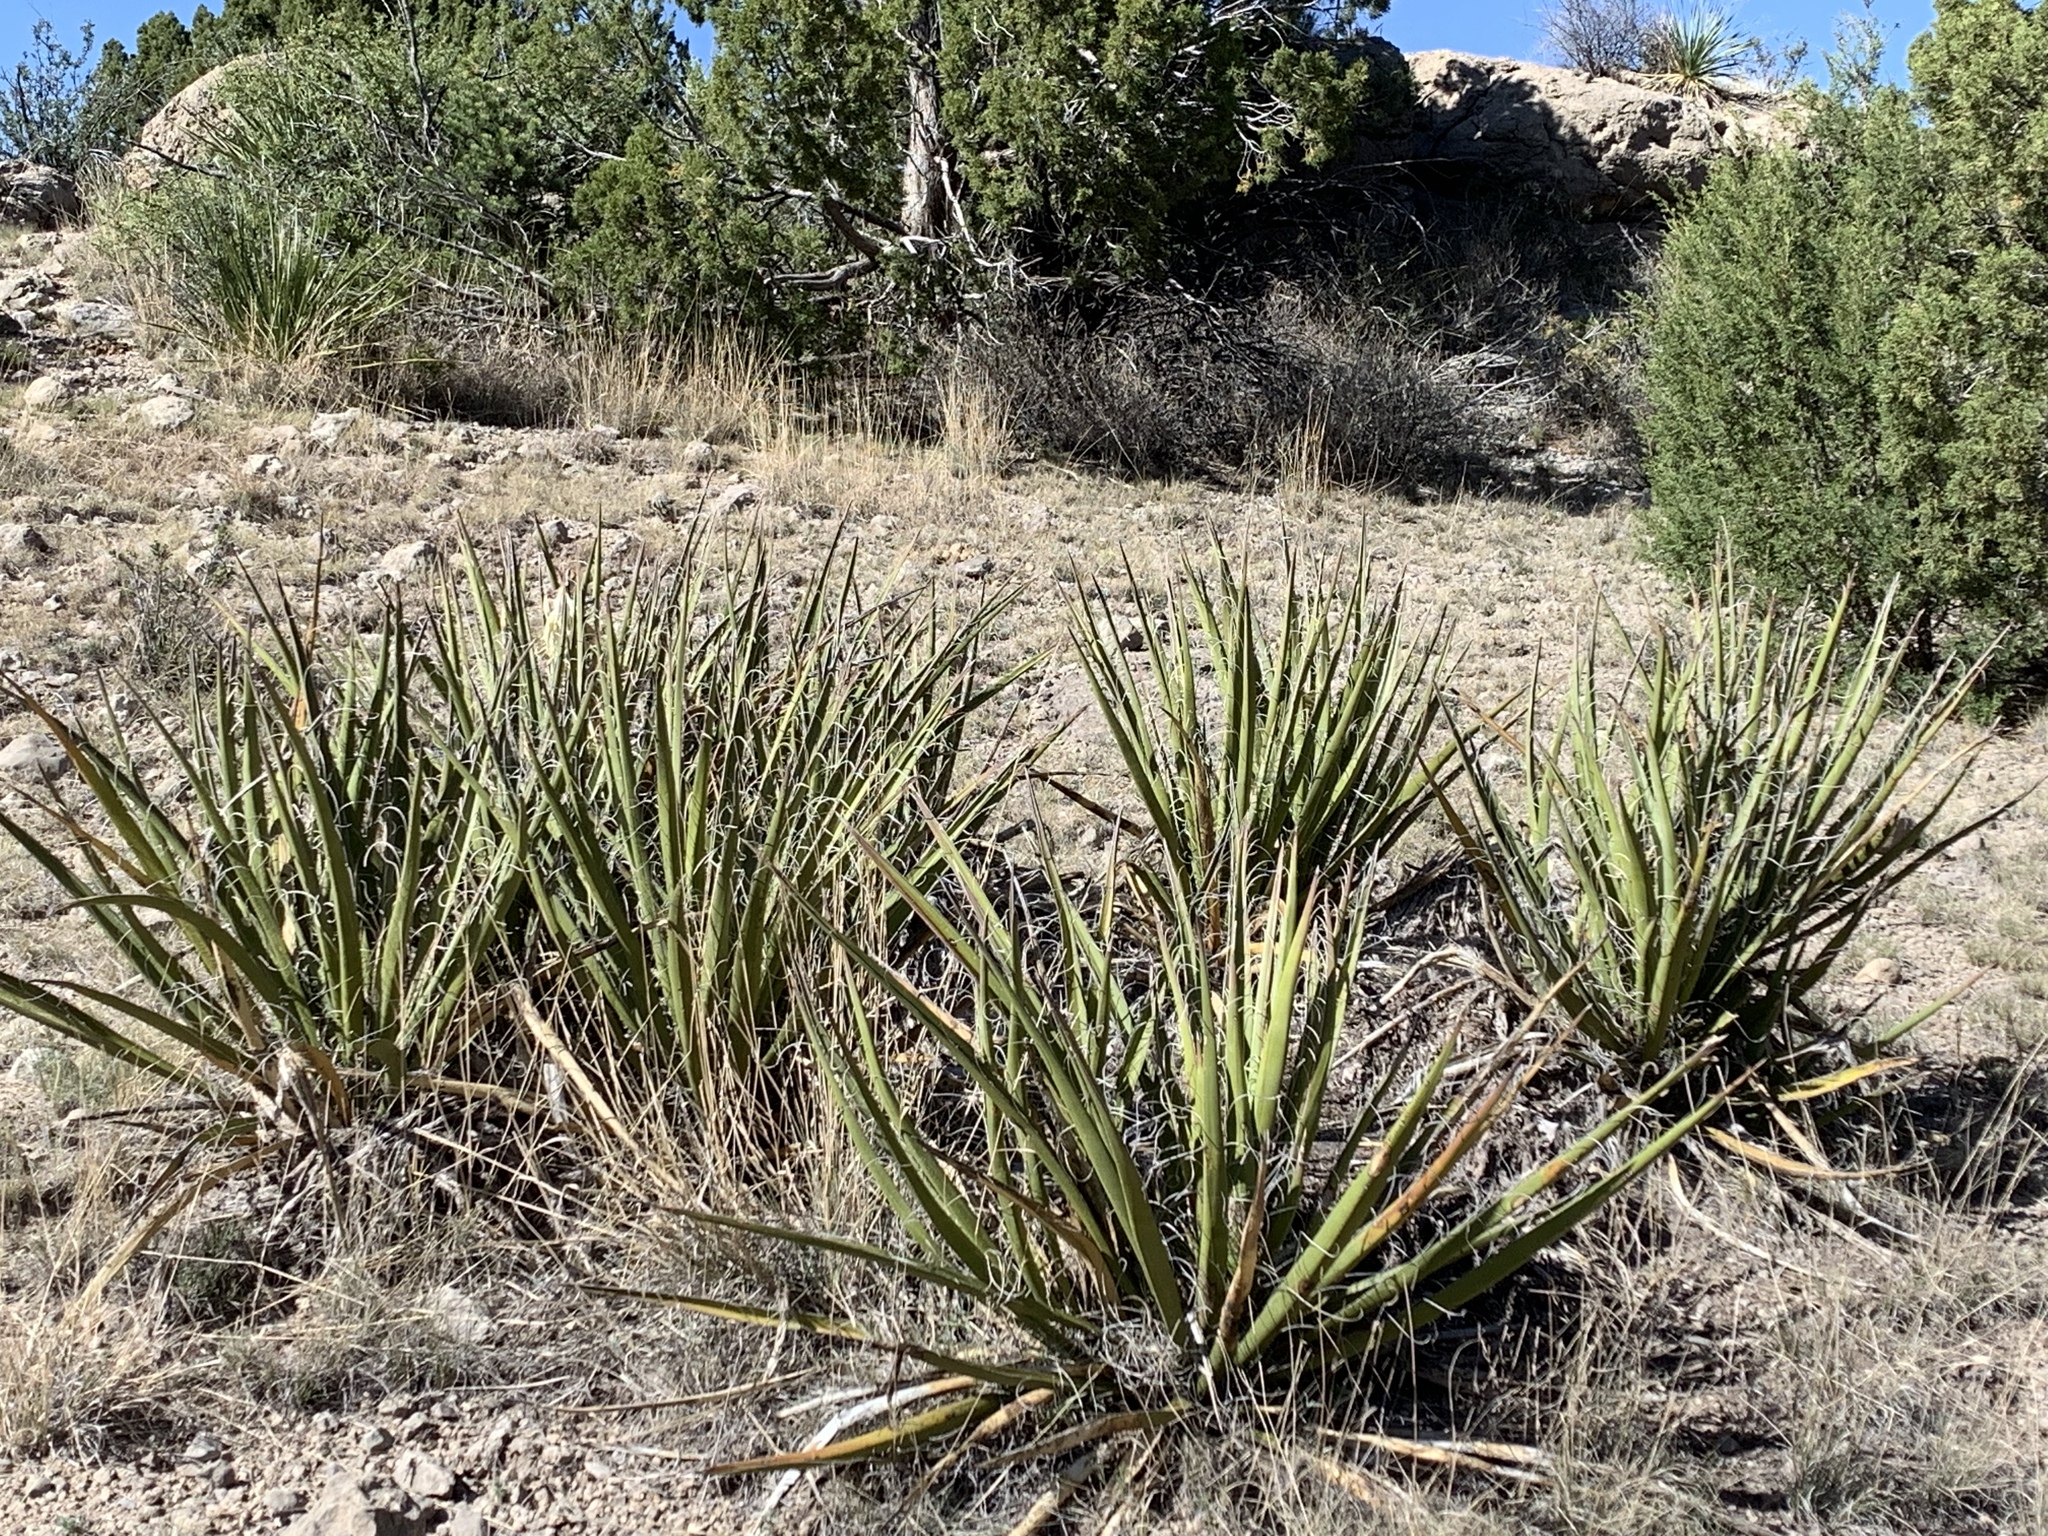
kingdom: Plantae
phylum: Tracheophyta
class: Liliopsida
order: Asparagales
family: Asparagaceae
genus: Yucca
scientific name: Yucca baccata
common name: Banana yucca
